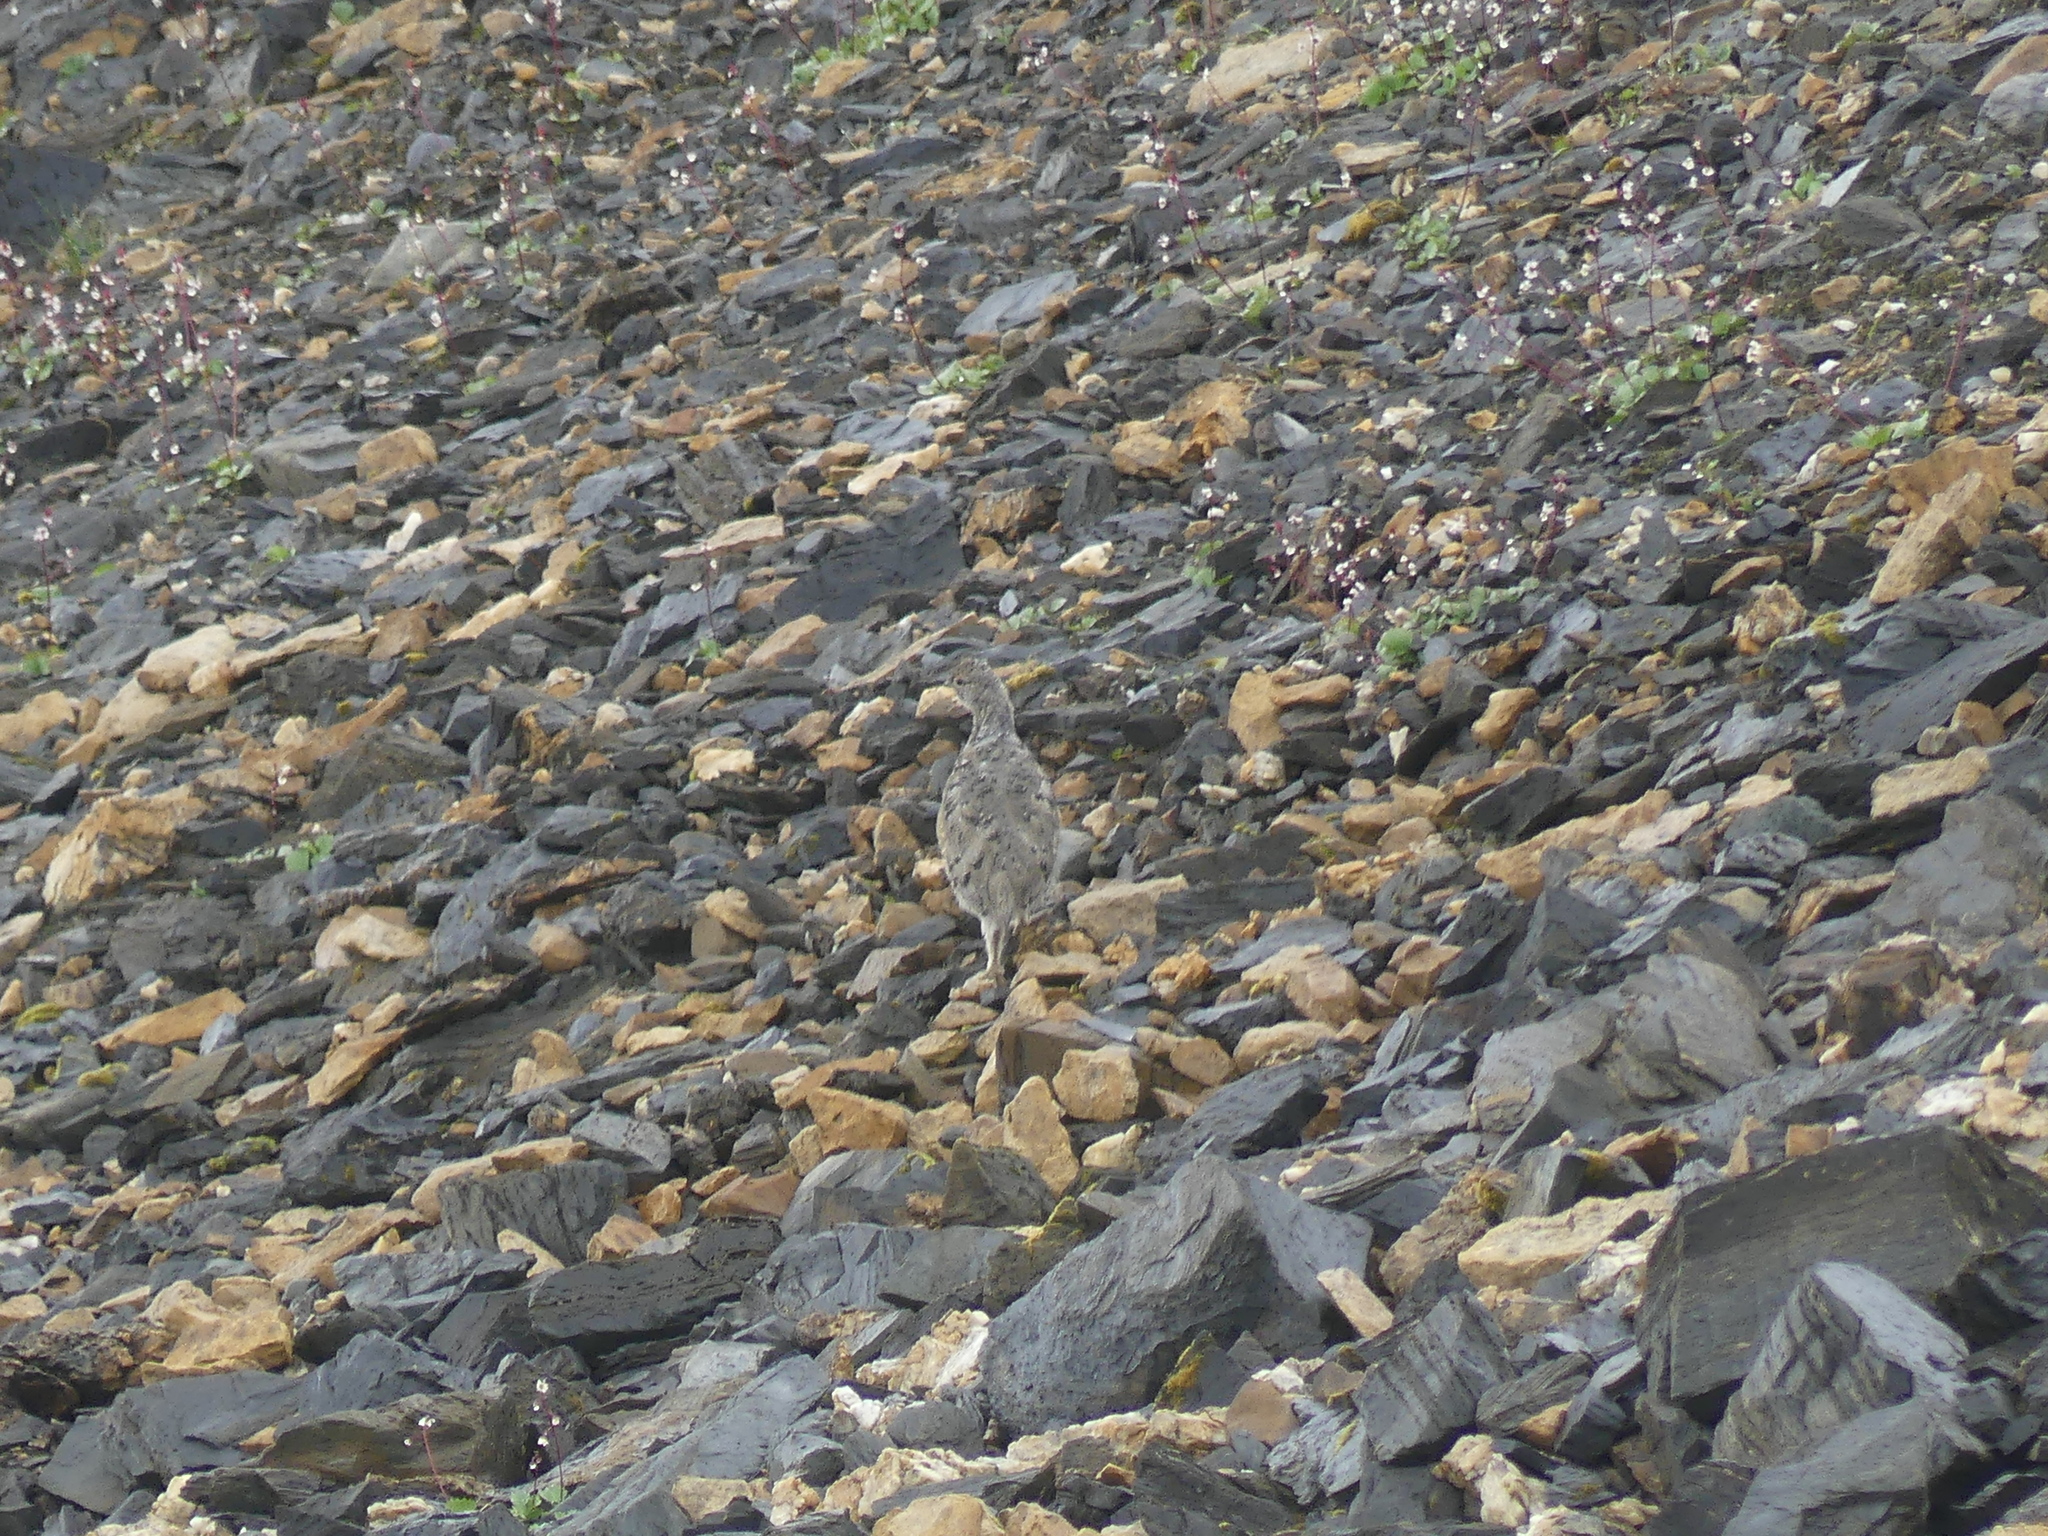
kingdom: Animalia
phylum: Chordata
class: Aves
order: Galliformes
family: Phasianidae
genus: Lagopus
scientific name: Lagopus leucura
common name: White-tailed ptarmigan
